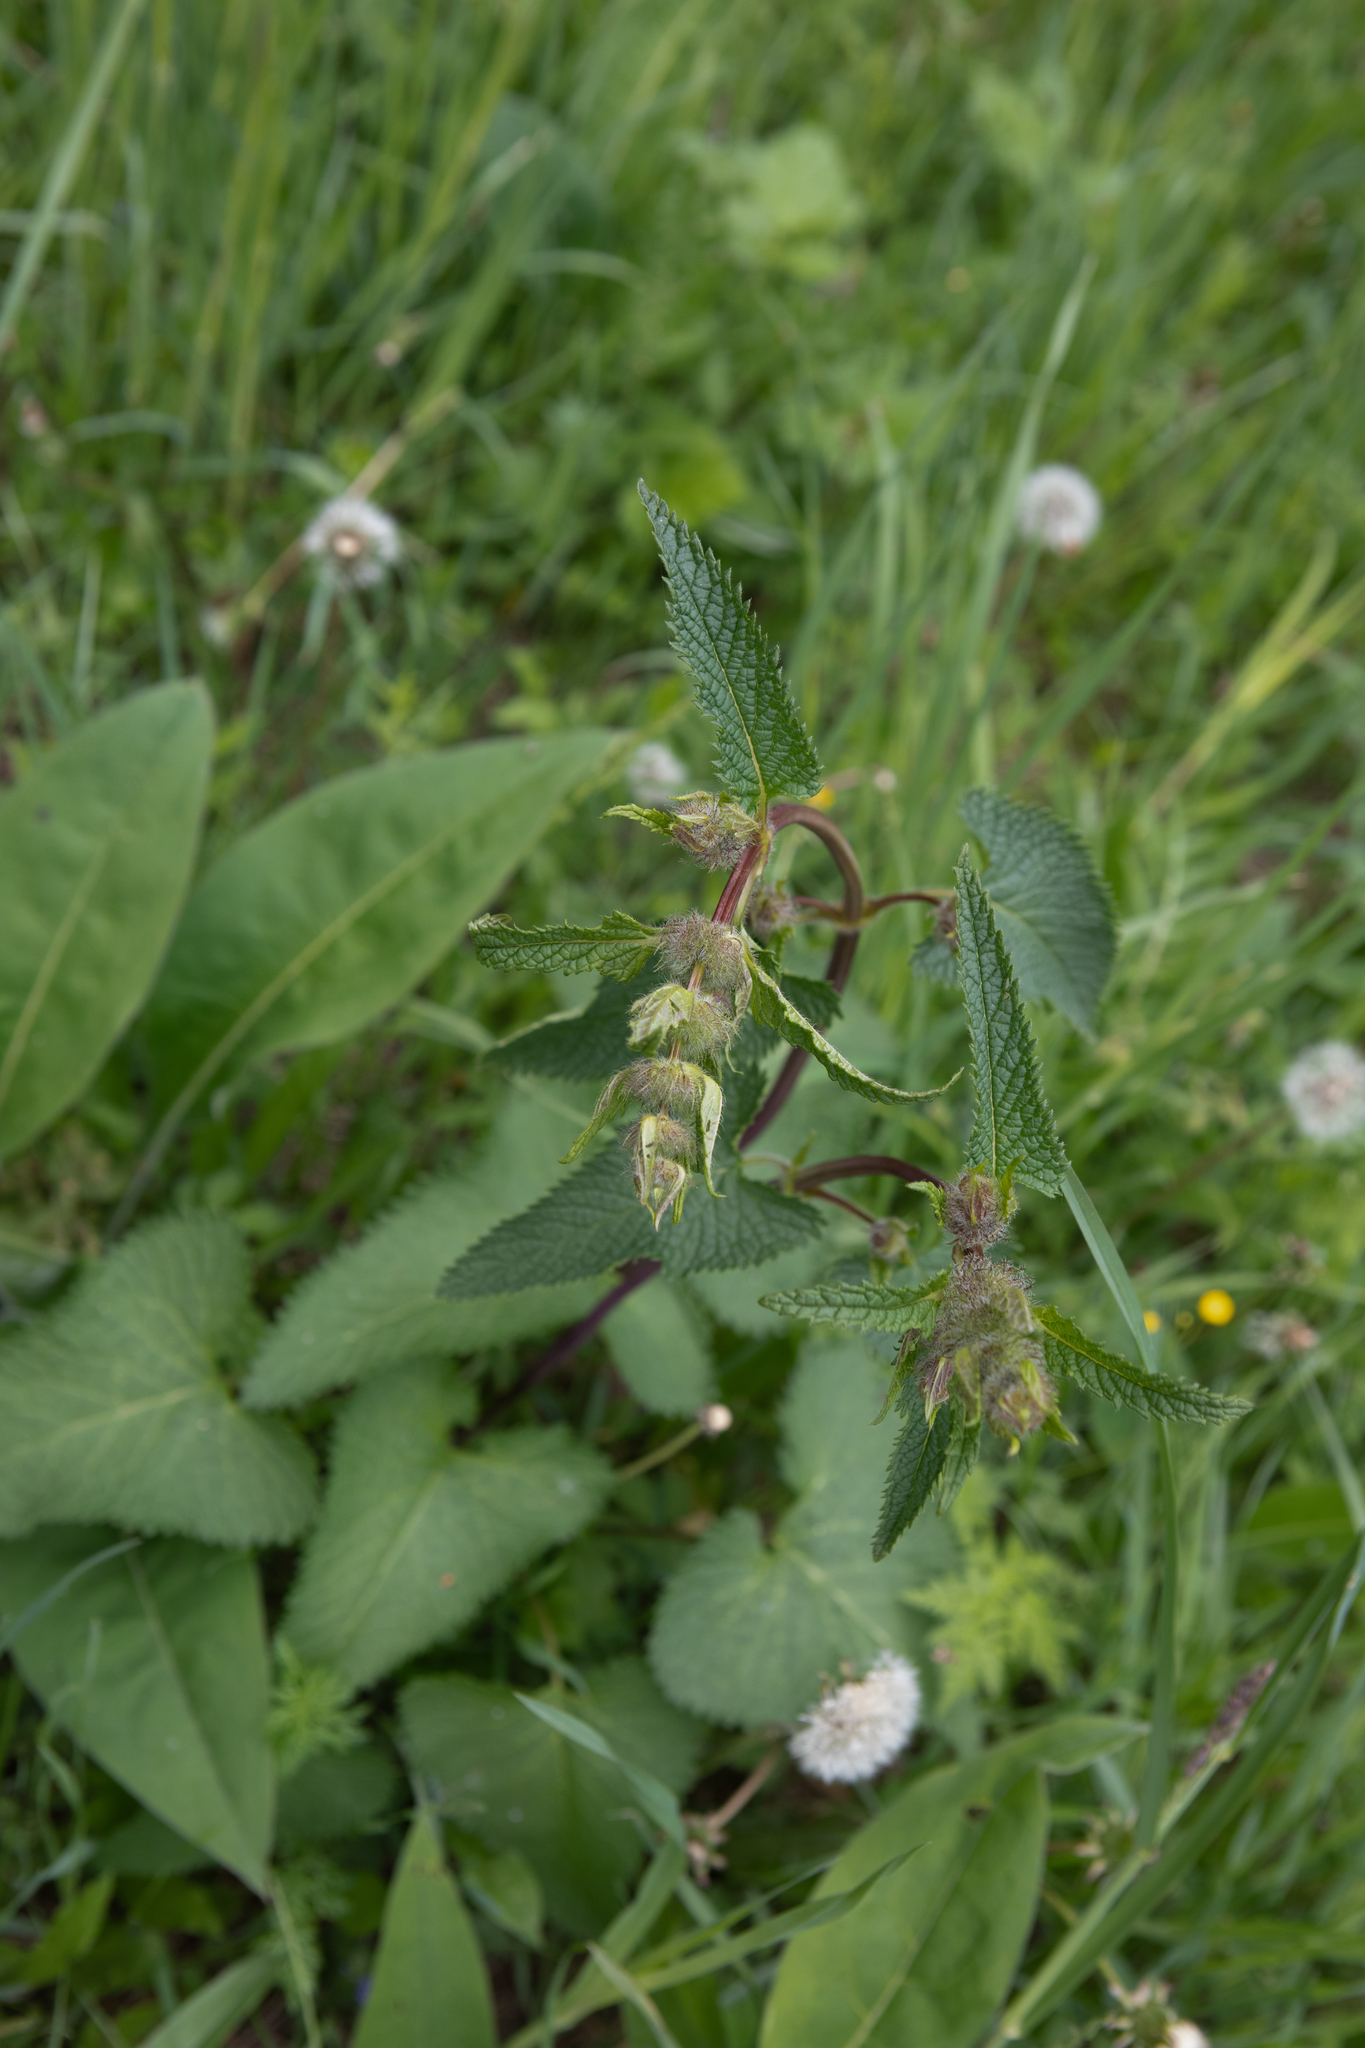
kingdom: Plantae
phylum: Tracheophyta
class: Magnoliopsida
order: Lamiales
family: Lamiaceae
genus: Phlomoides
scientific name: Phlomoides tuberosa
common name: Tuberous jerusalem sage
